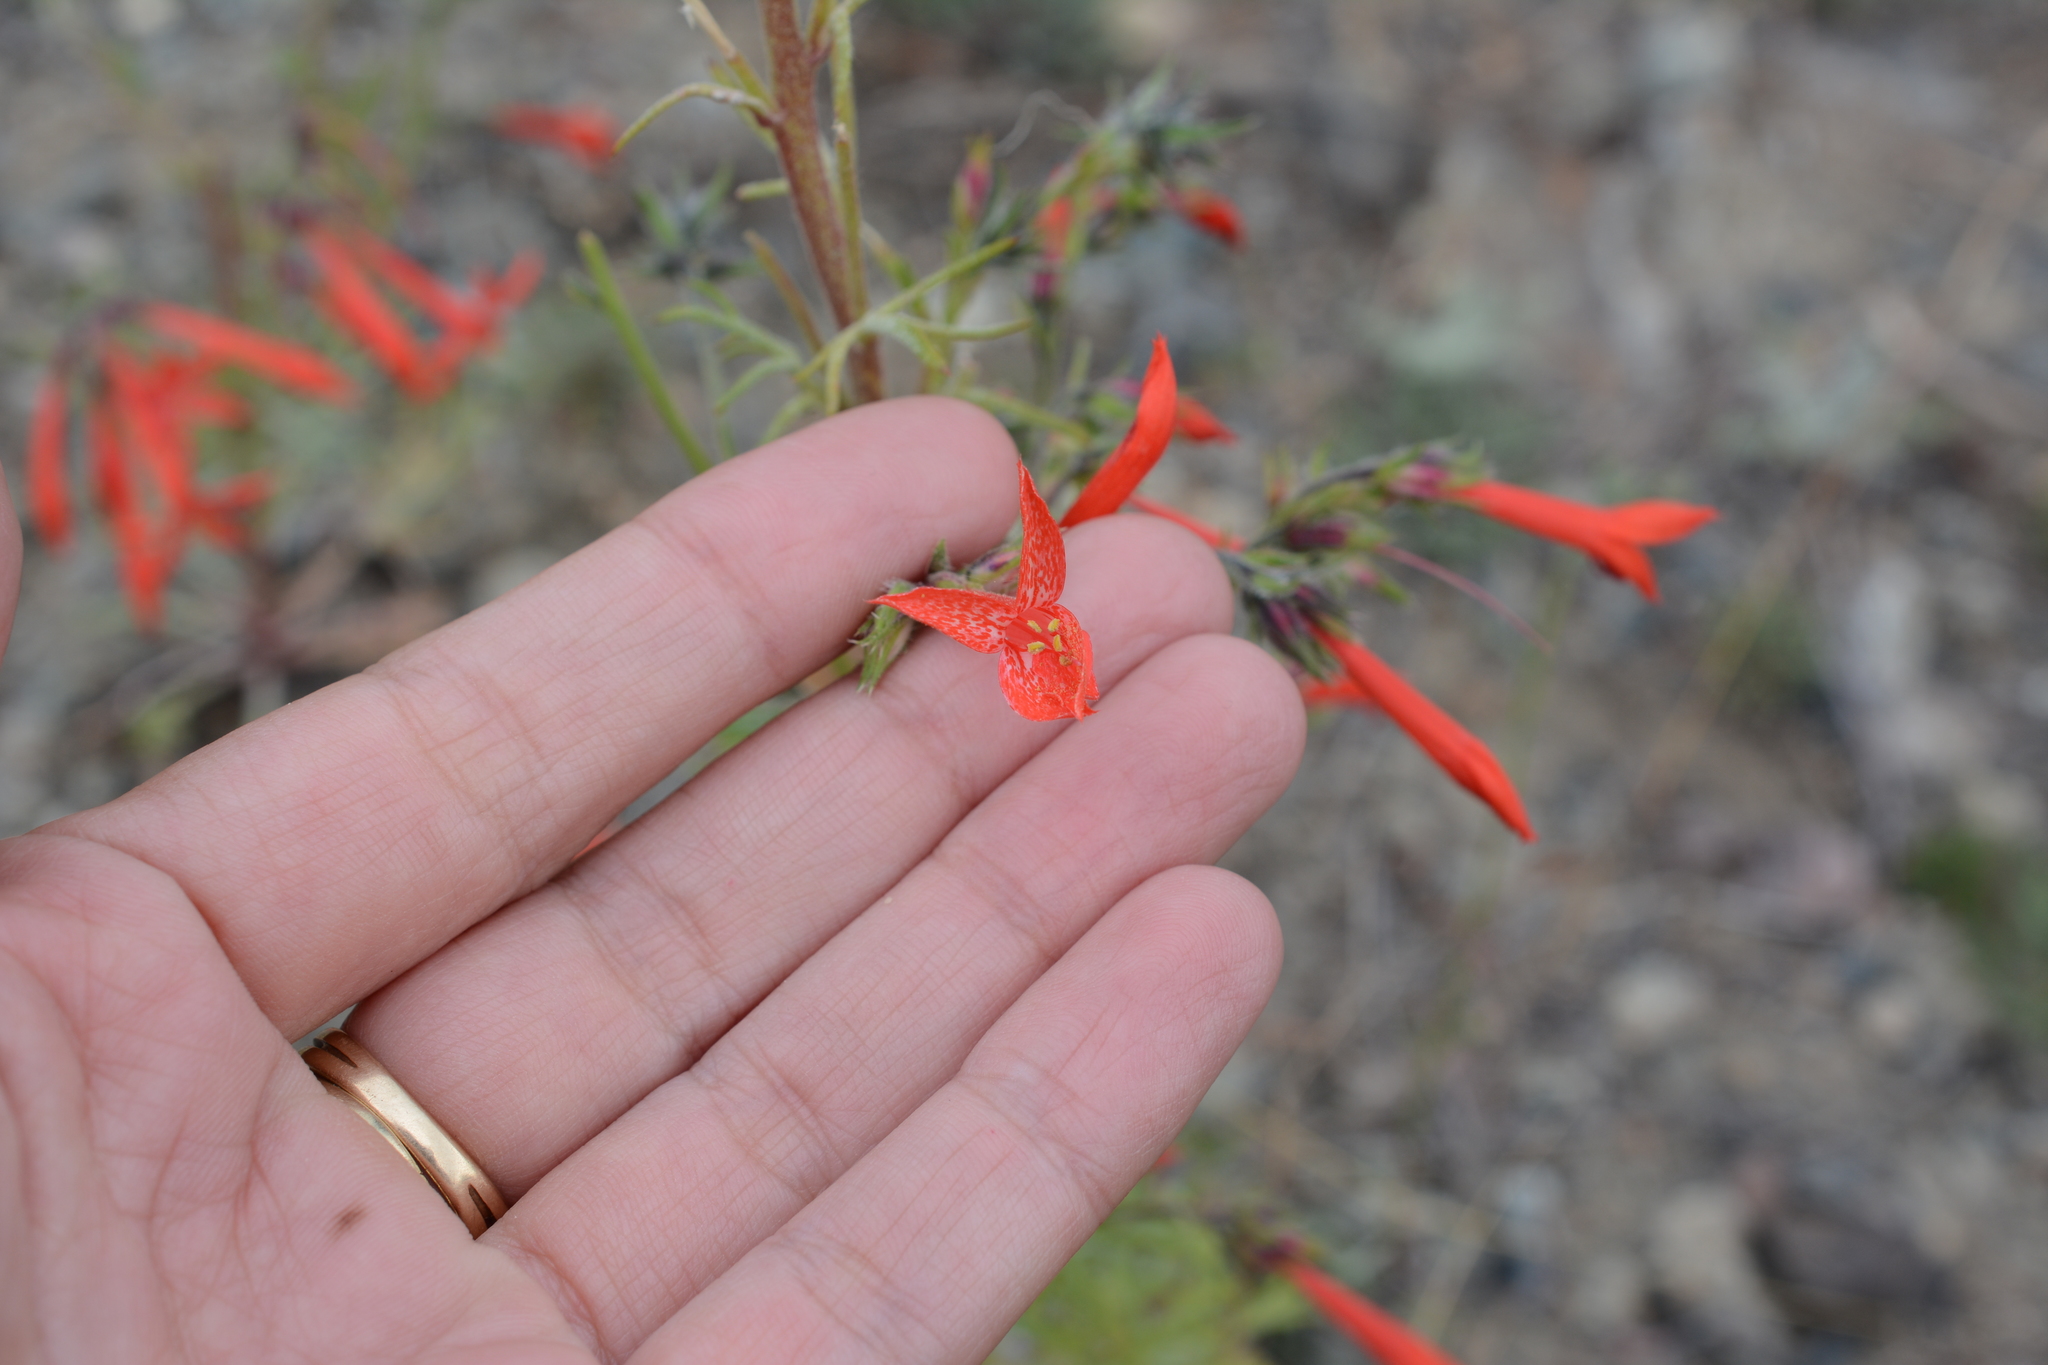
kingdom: Plantae
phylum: Tracheophyta
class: Magnoliopsida
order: Ericales
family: Polemoniaceae
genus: Ipomopsis
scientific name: Ipomopsis aggregata
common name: Scarlet gilia
